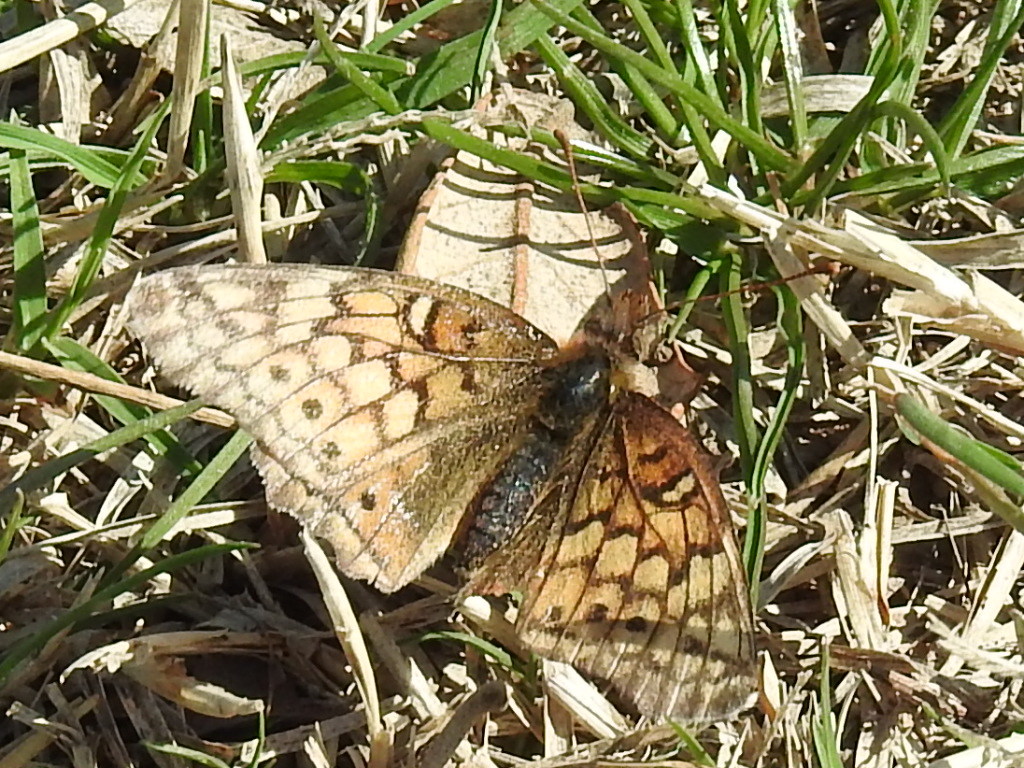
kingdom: Animalia
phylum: Arthropoda
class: Insecta
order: Lepidoptera
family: Nymphalidae
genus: Euptoieta
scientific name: Euptoieta claudia
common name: Variegated fritillary
